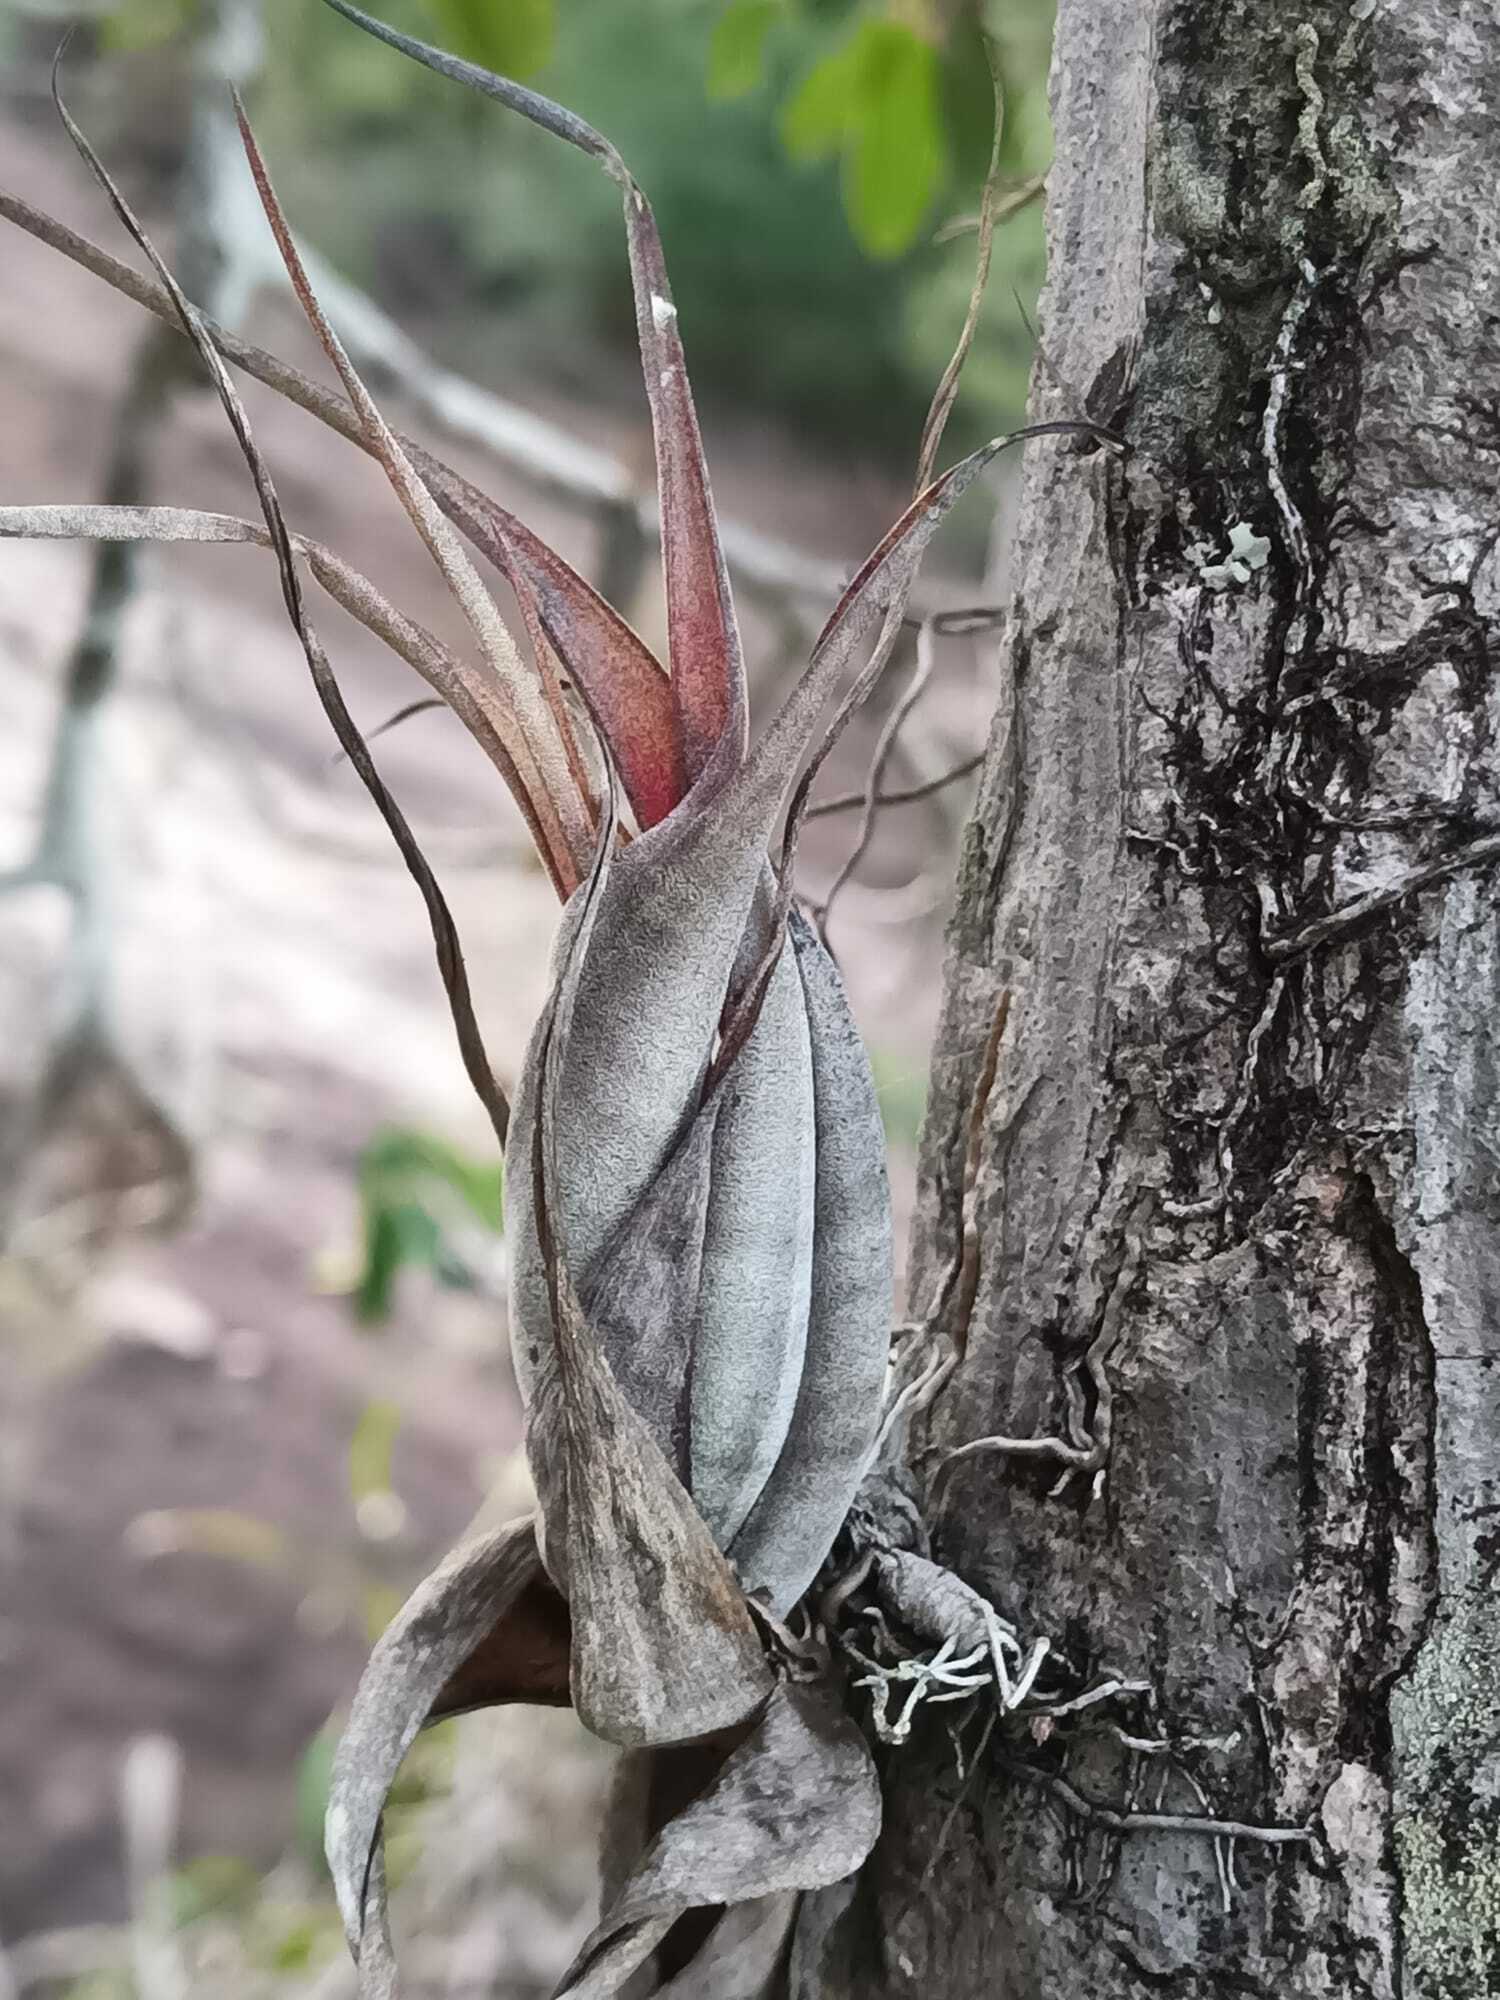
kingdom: Plantae
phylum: Tracheophyta
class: Liliopsida
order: Poales
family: Bromeliaceae
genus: Tillandsia
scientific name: Tillandsia flexuosa
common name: Banded airplant
